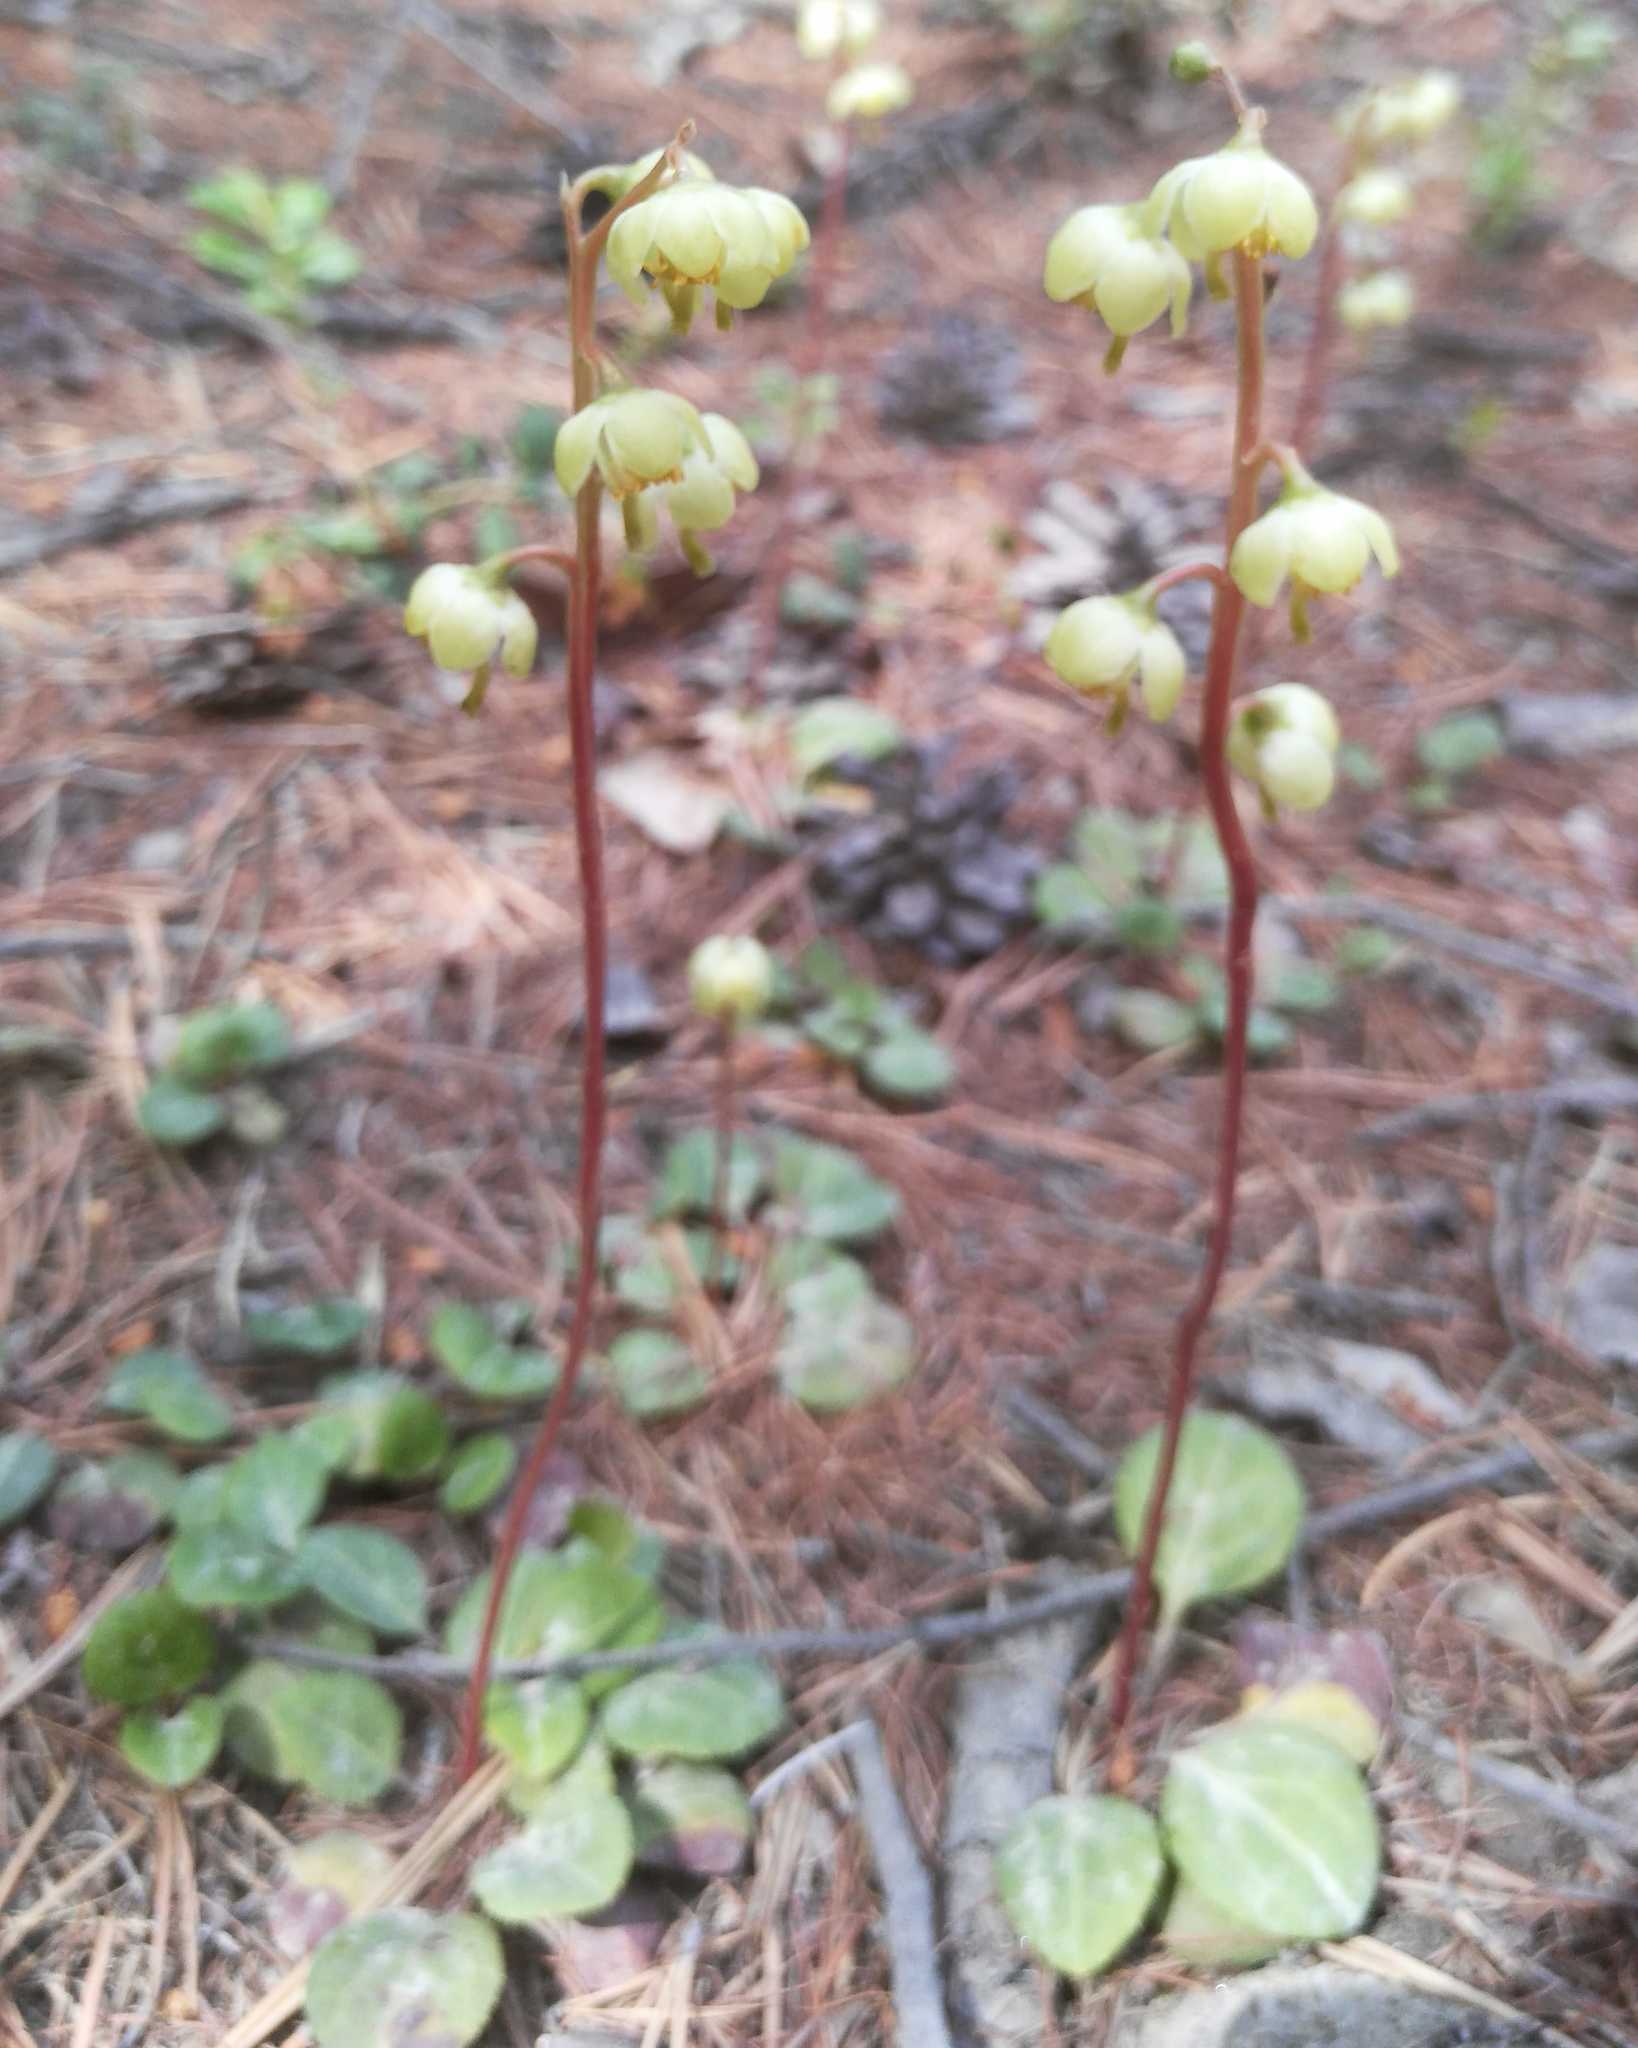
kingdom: Plantae
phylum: Tracheophyta
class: Magnoliopsida
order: Ericales
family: Ericaceae
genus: Pyrola
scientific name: Pyrola chlorantha
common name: Green wintergreen
